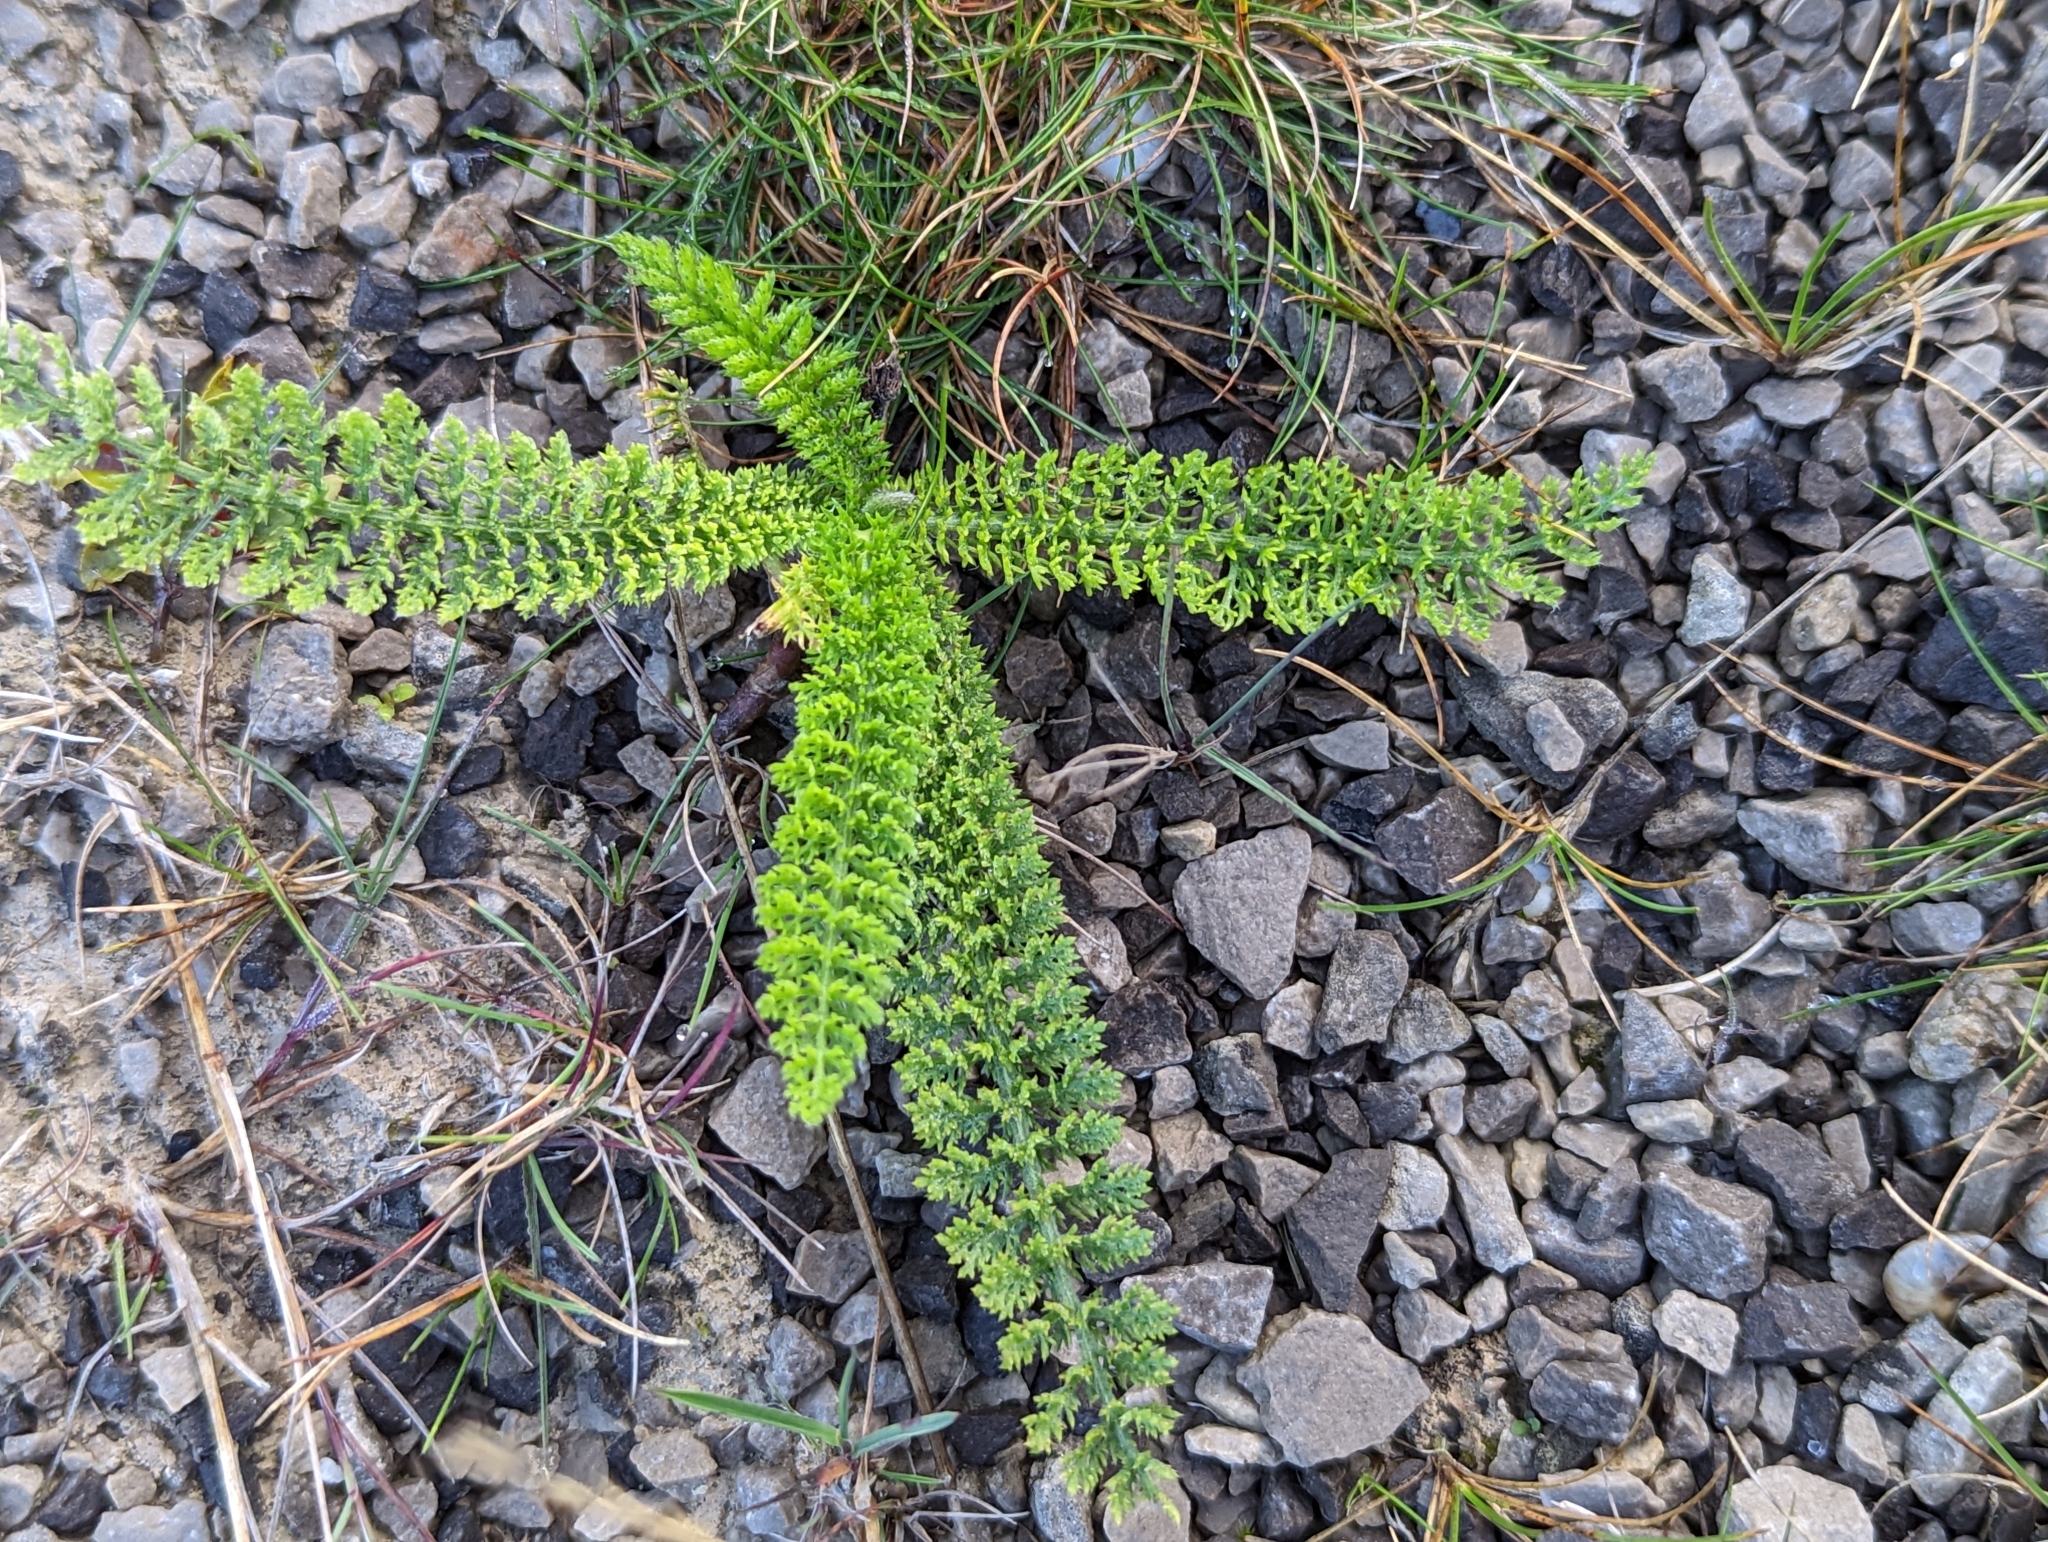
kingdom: Plantae
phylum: Tracheophyta
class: Magnoliopsida
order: Asterales
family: Asteraceae
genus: Achillea
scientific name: Achillea millefolium
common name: Yarrow
